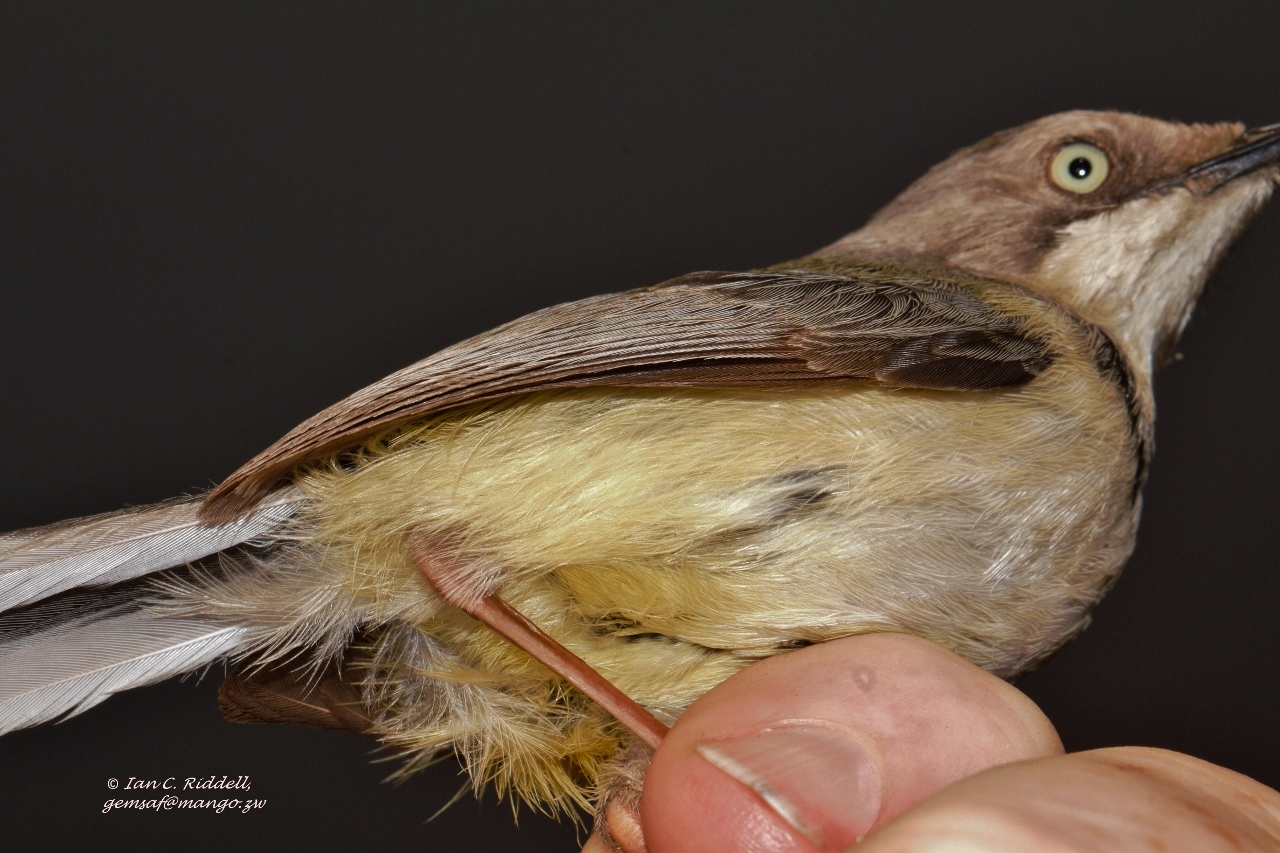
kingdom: Animalia
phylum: Chordata
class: Aves
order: Passeriformes
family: Cisticolidae
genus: Apalis
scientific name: Apalis thoracica
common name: Bar-throated apalis
